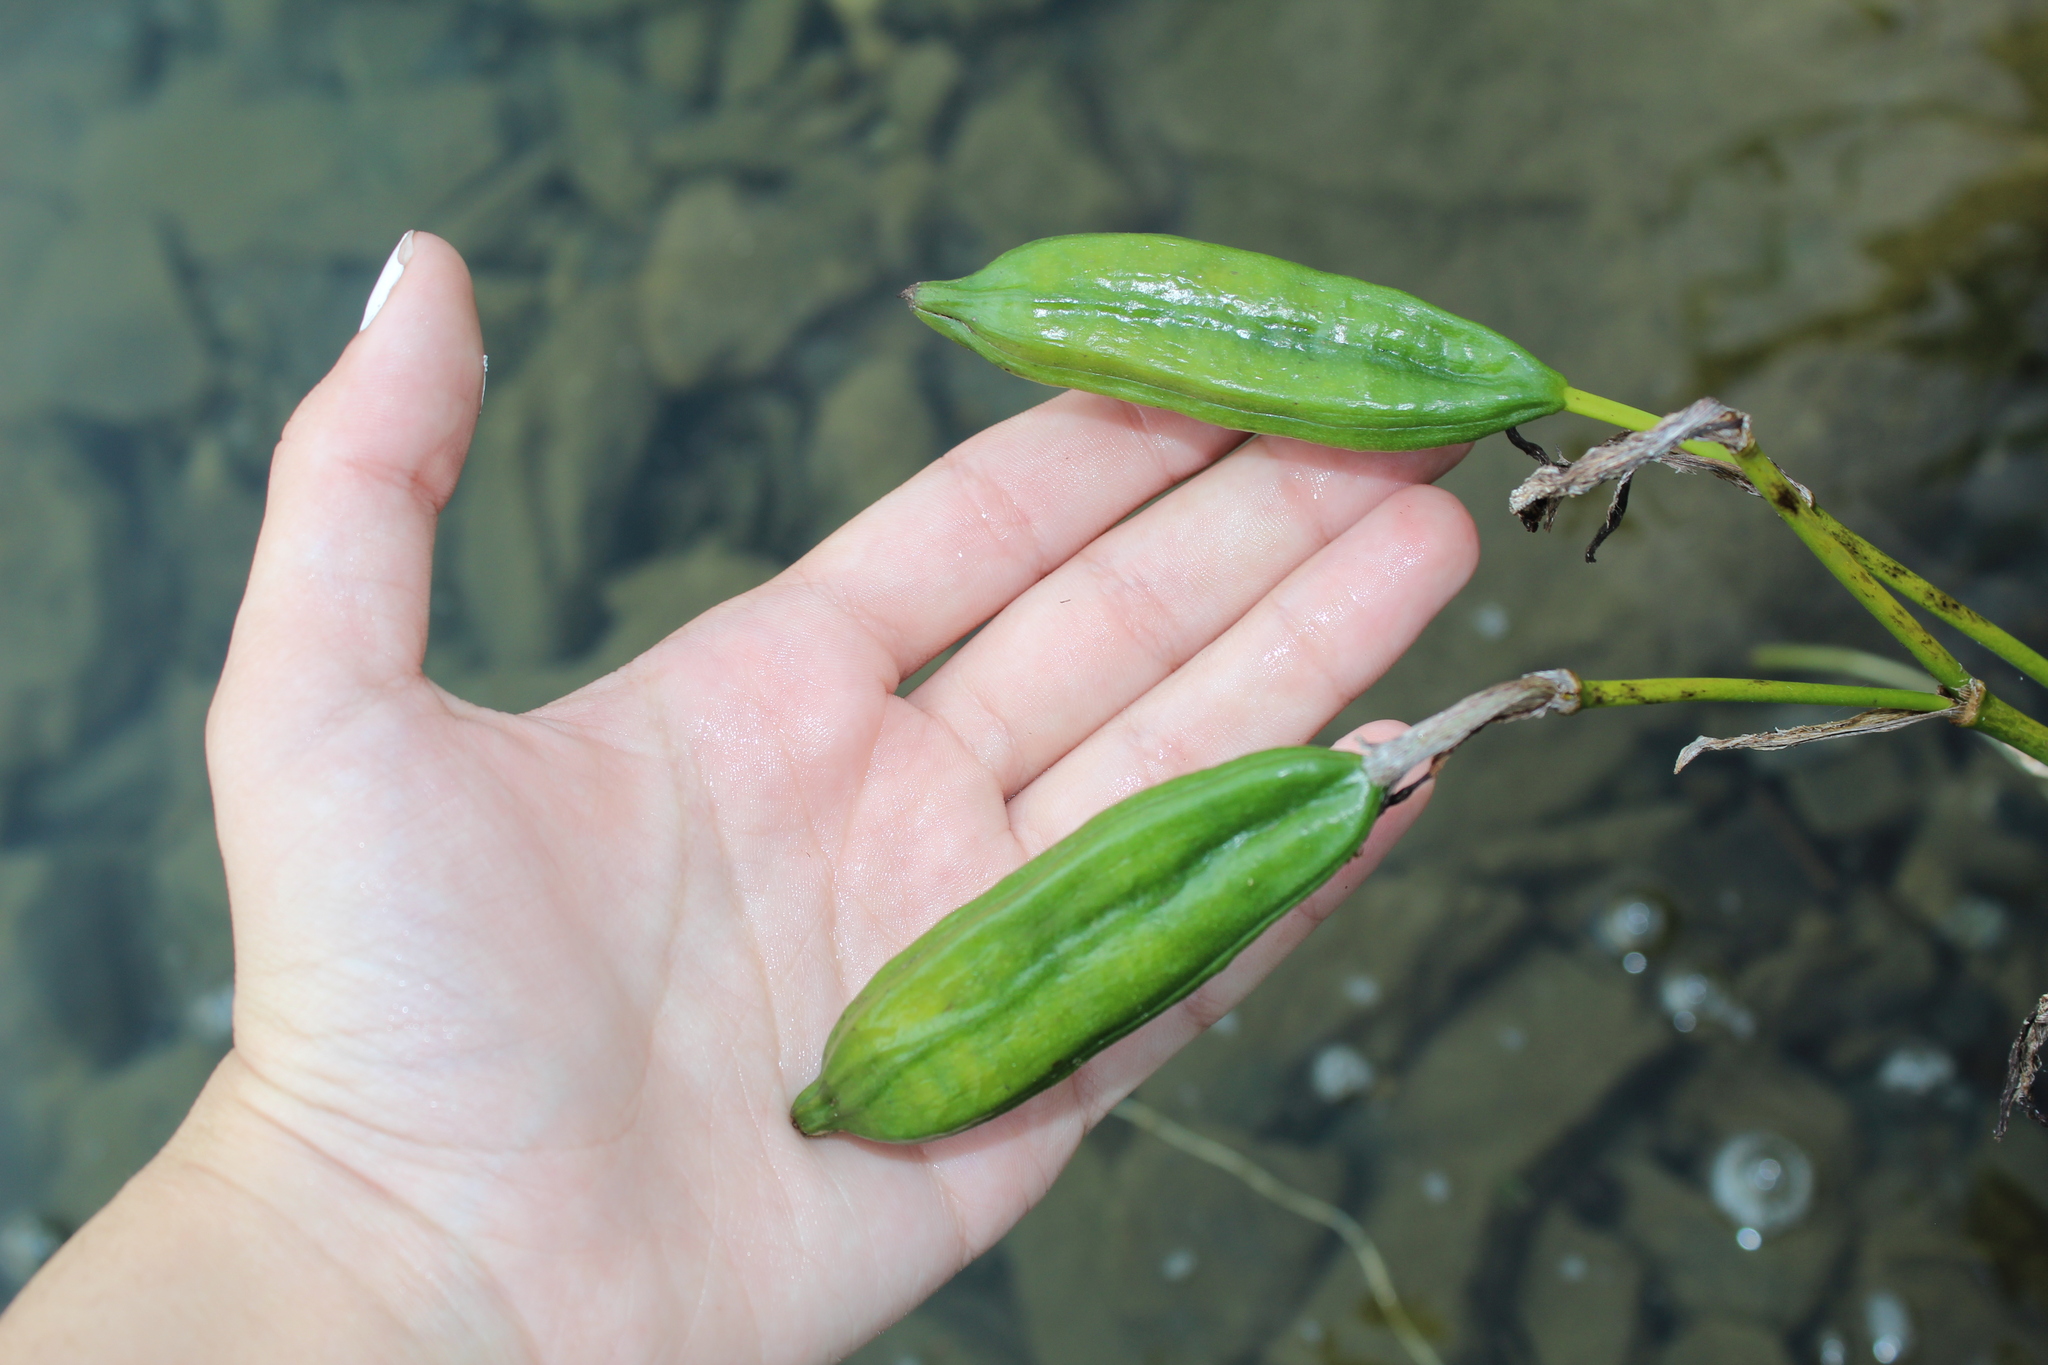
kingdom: Plantae
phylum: Tracheophyta
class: Liliopsida
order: Asparagales
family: Iridaceae
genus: Iris
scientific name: Iris pseudacorus
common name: Yellow flag
